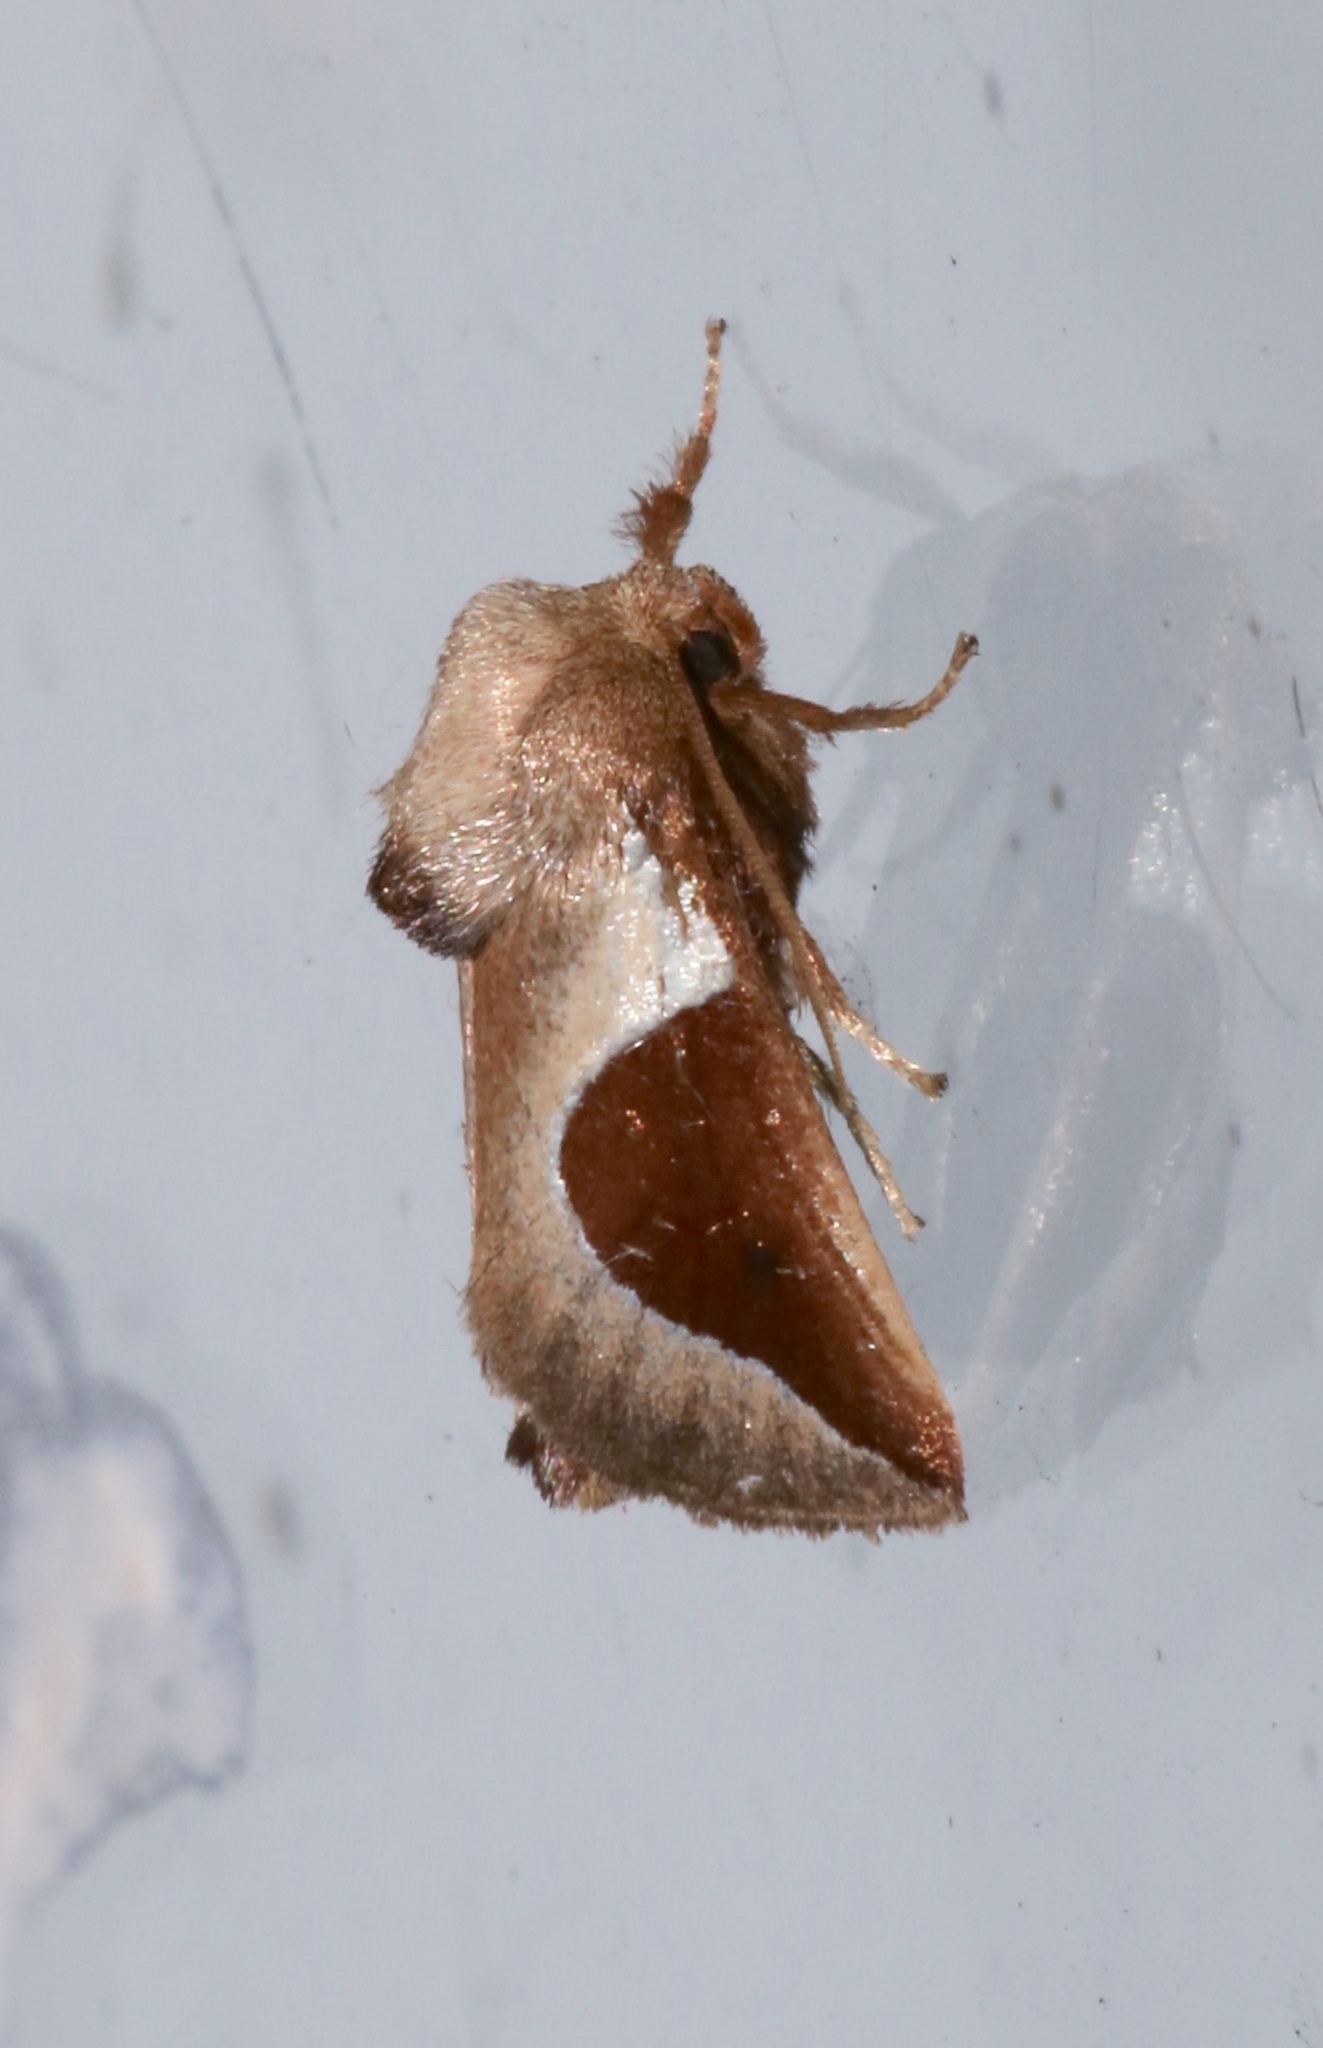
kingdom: Animalia
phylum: Arthropoda
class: Insecta
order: Lepidoptera
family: Limacodidae
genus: Prolimacodes
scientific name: Prolimacodes badia
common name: Skiff moth
